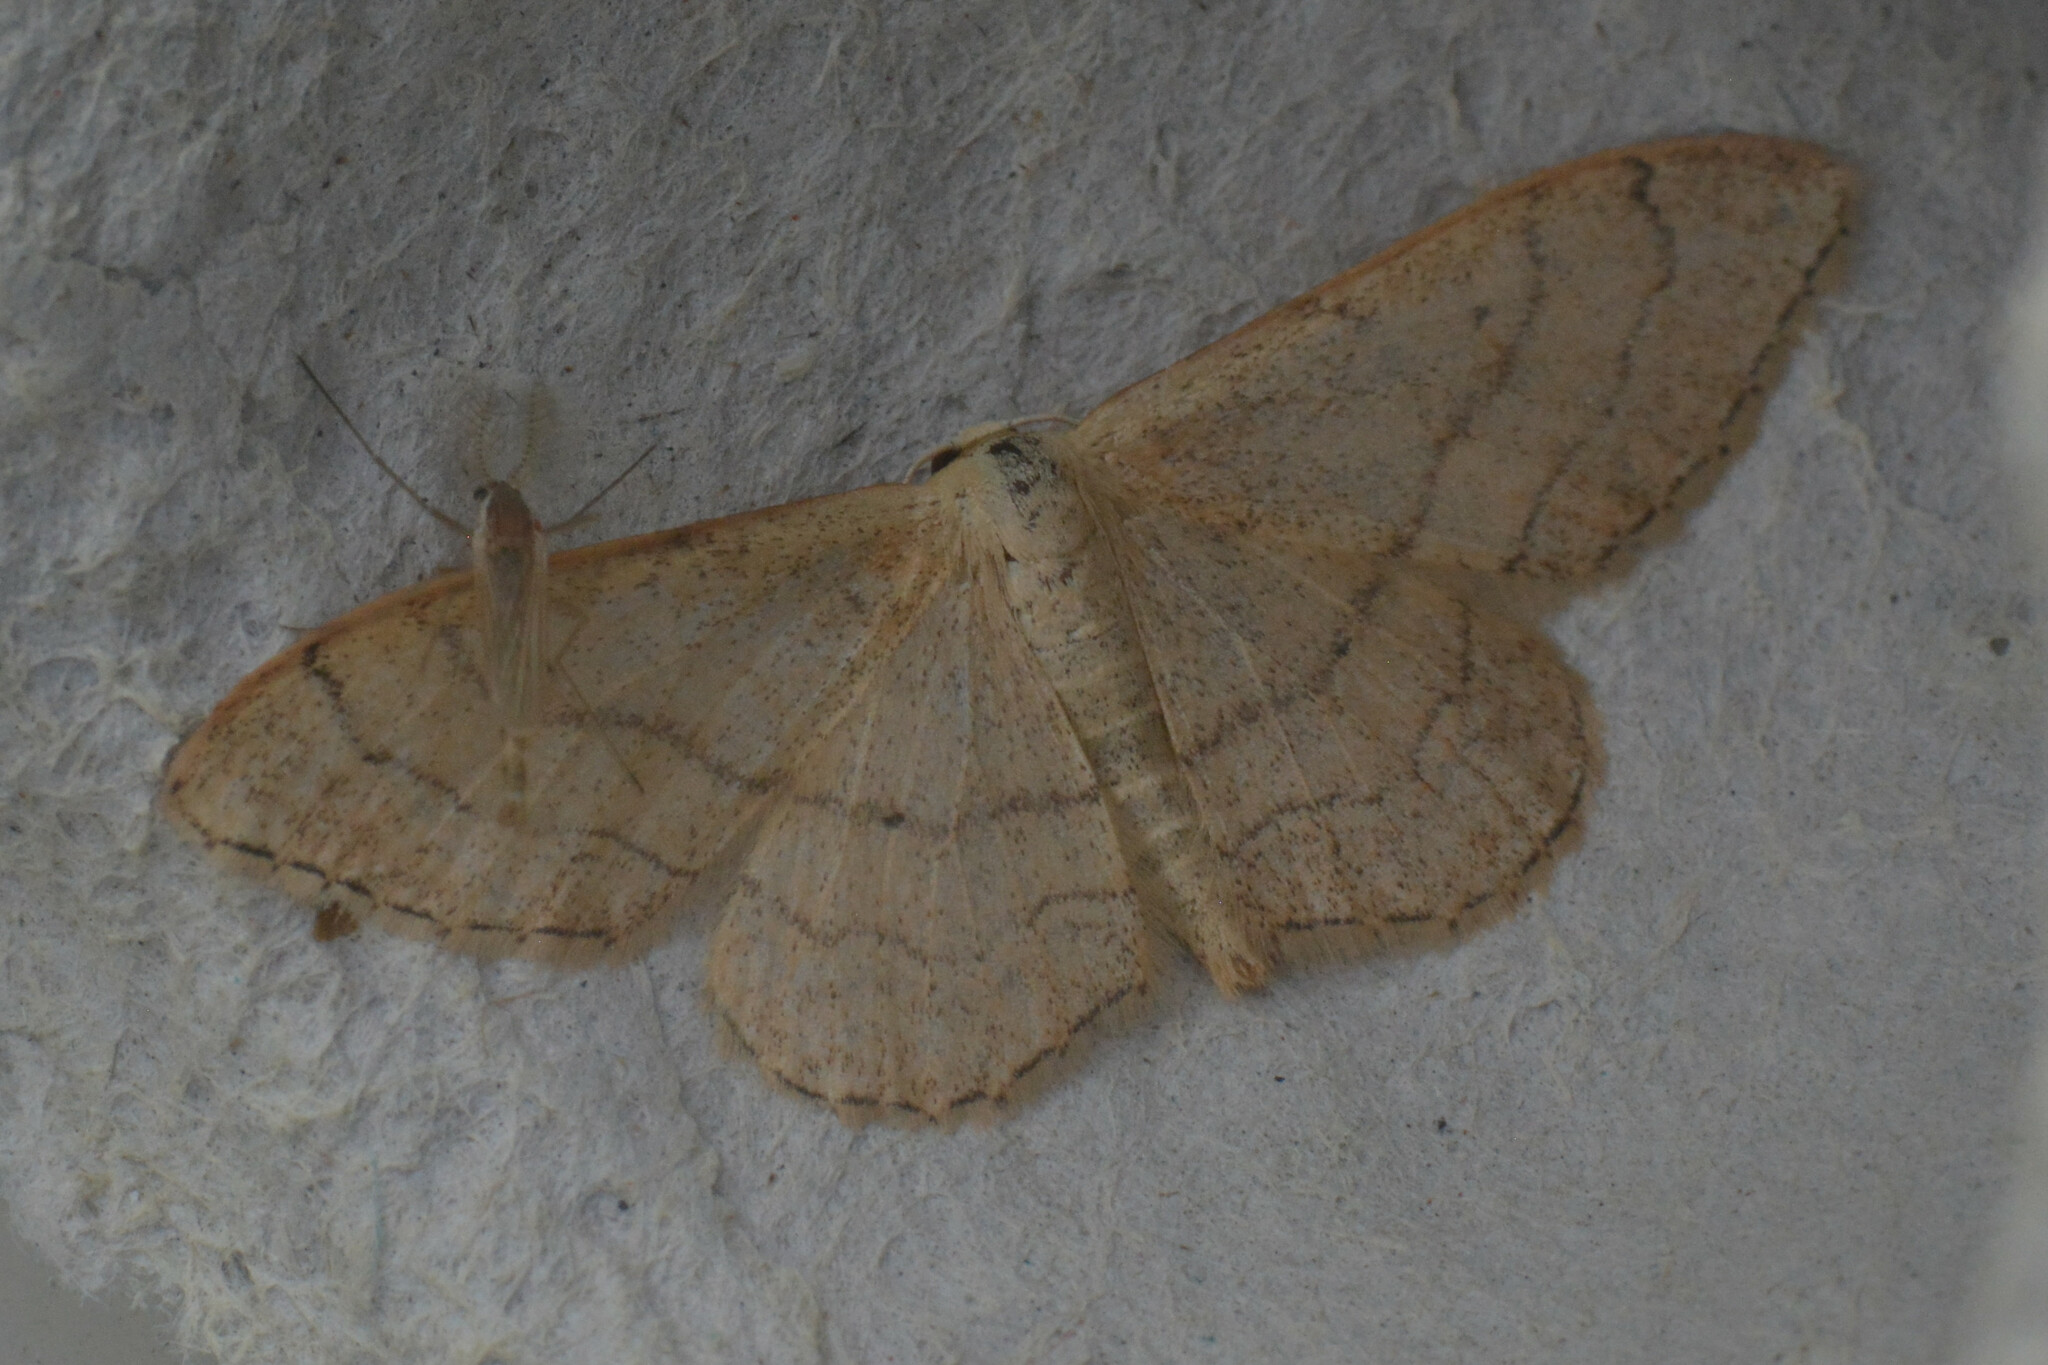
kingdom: Animalia
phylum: Arthropoda
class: Insecta
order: Lepidoptera
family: Geometridae
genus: Idaea
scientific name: Idaea aversata
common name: Riband wave
